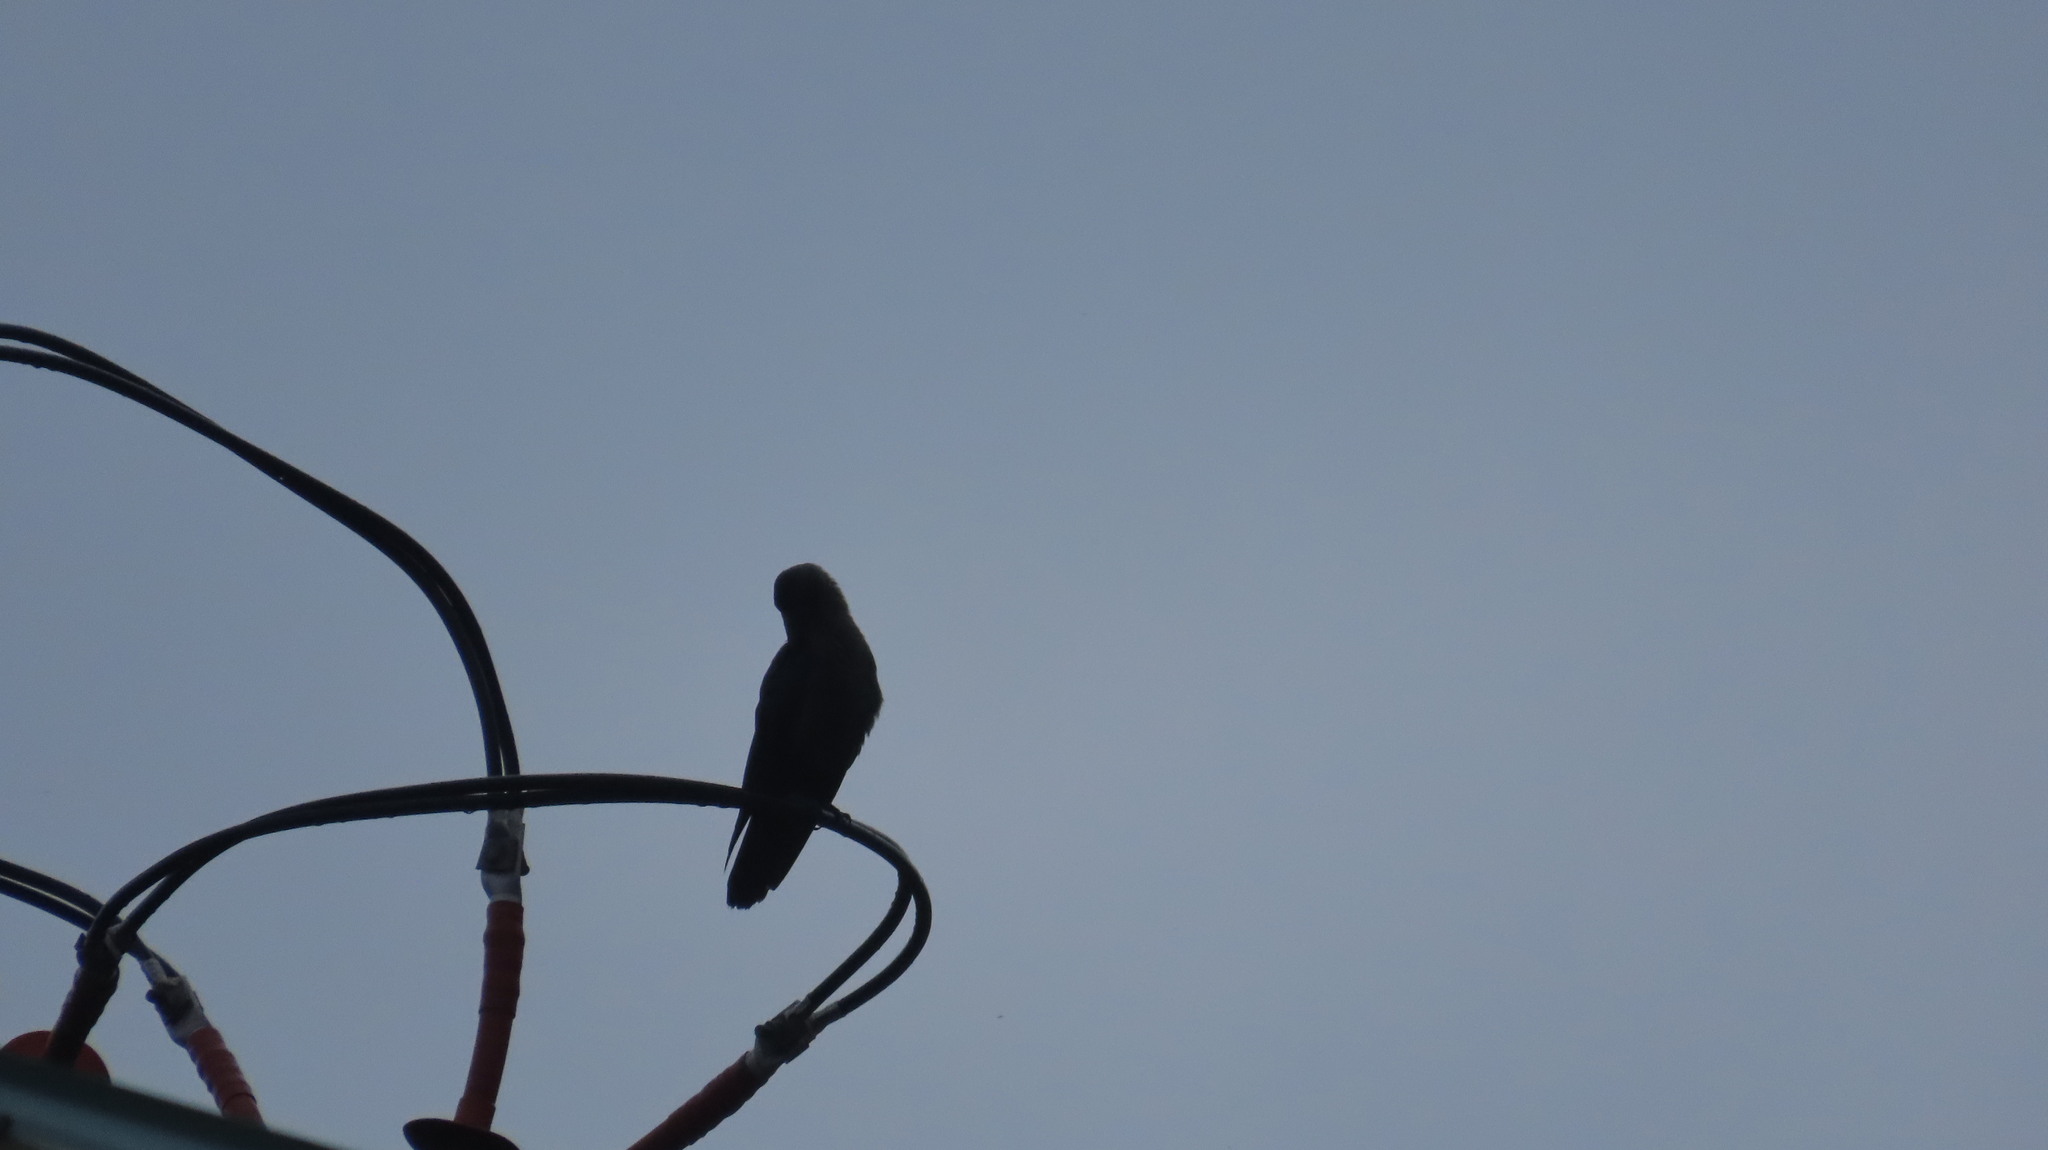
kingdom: Animalia
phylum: Chordata
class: Aves
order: Passeriformes
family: Corvidae
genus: Corvus
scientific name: Corvus splendens
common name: House crow
